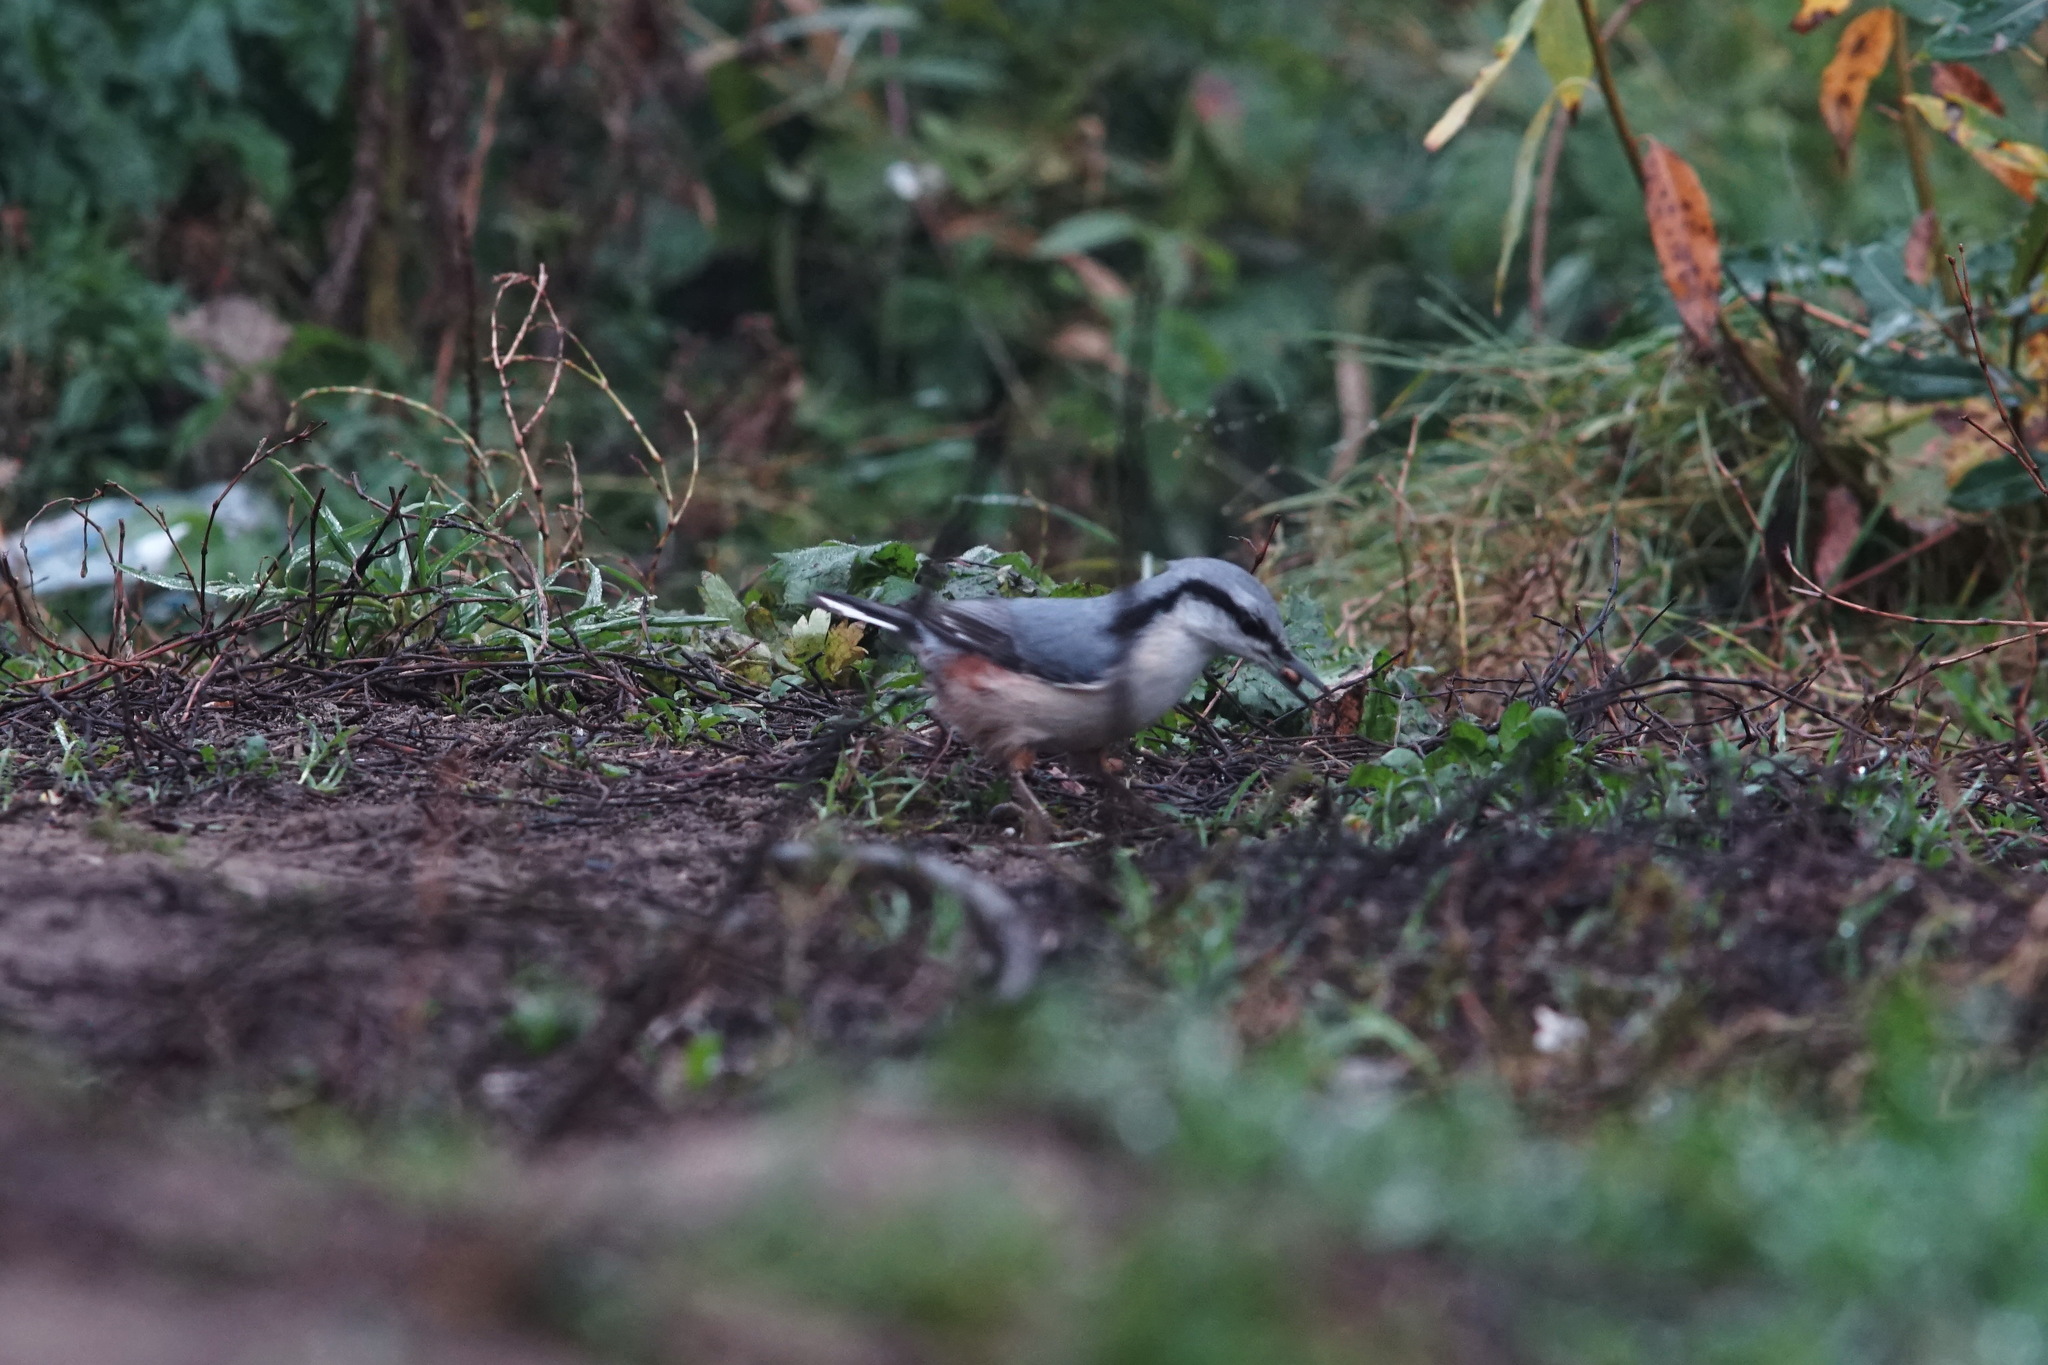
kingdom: Animalia
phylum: Chordata
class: Aves
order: Passeriformes
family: Sittidae
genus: Sitta
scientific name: Sitta europaea
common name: Eurasian nuthatch
